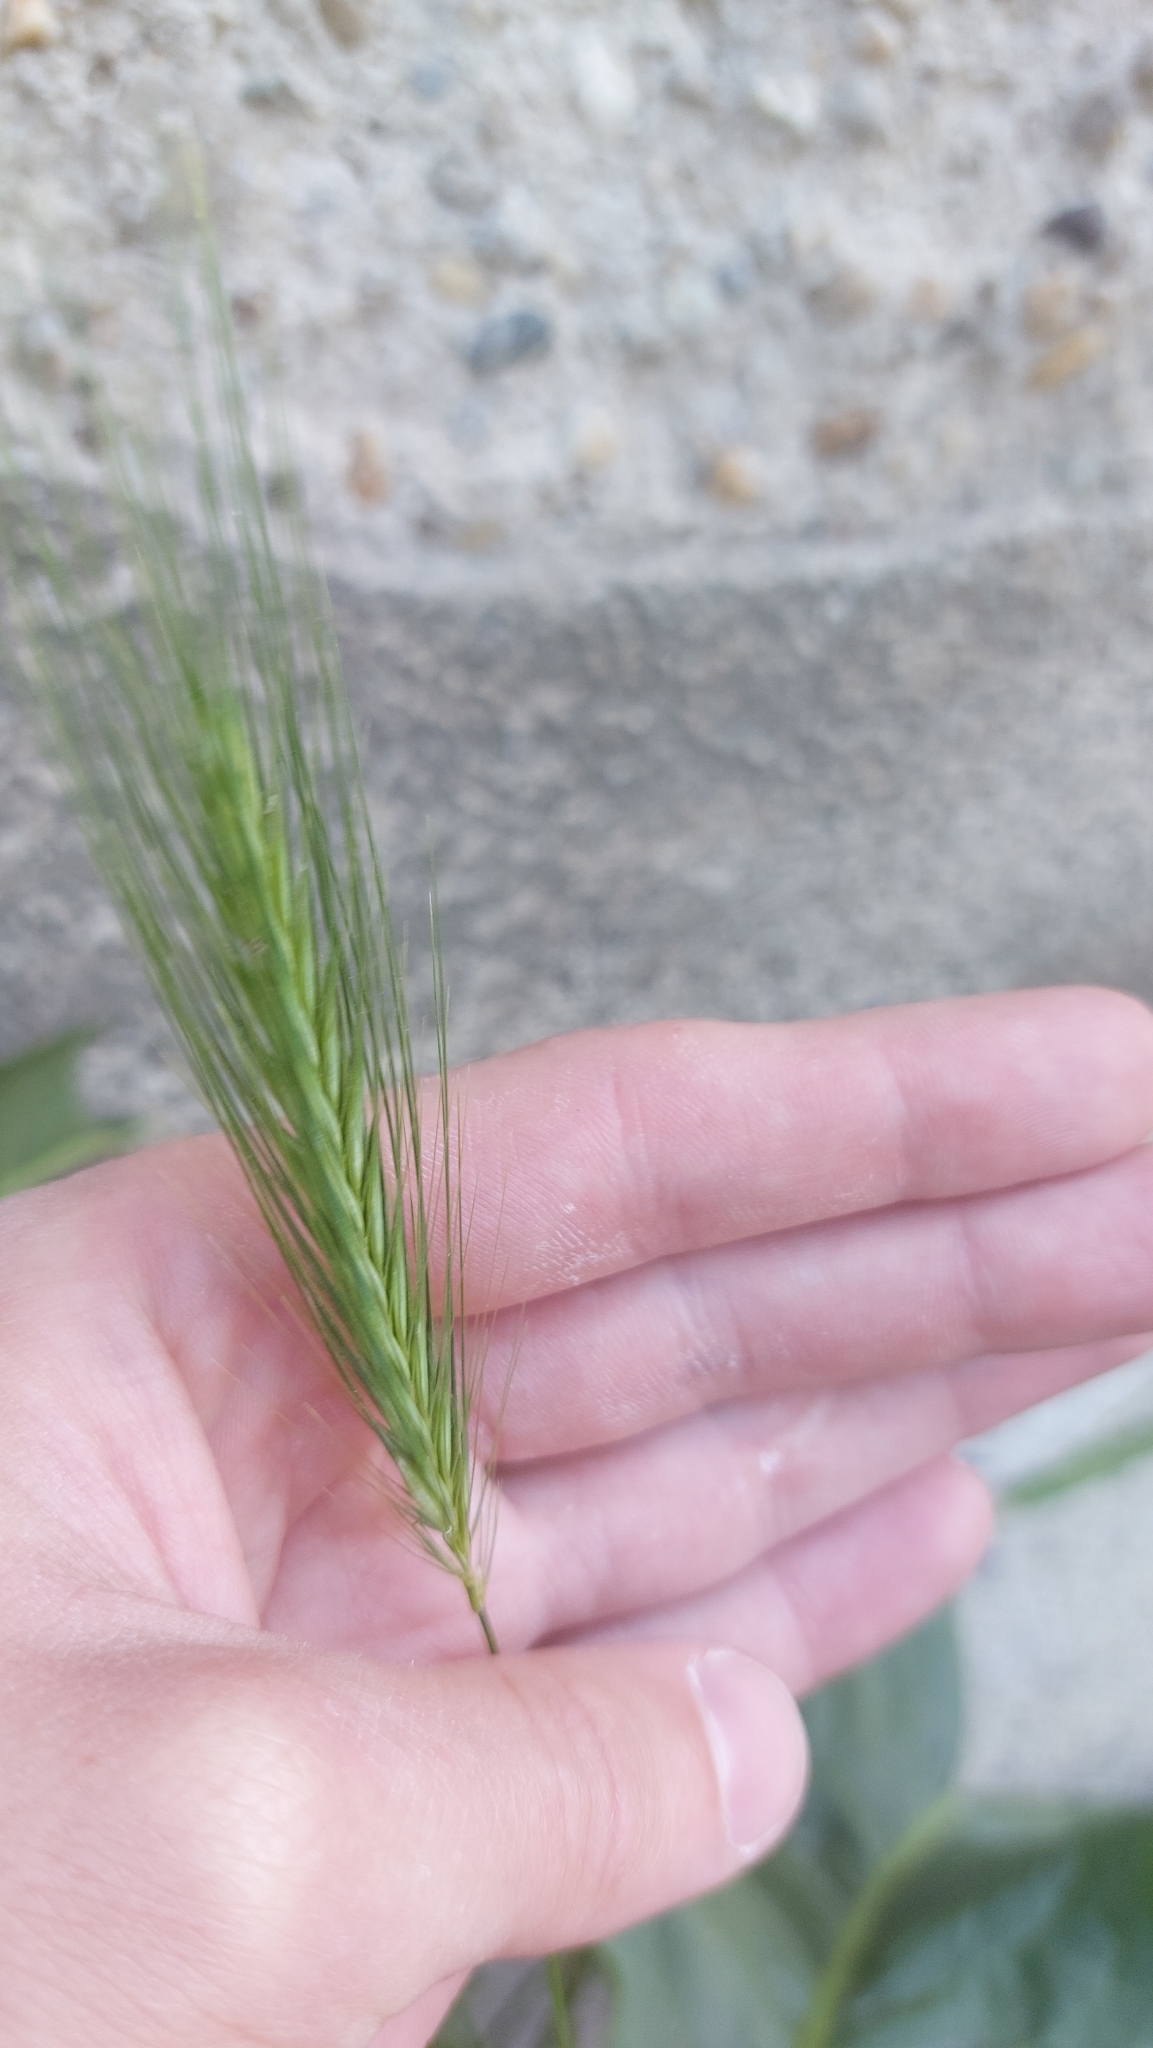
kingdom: Plantae
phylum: Tracheophyta
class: Liliopsida
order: Poales
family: Poaceae
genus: Hordeum
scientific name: Hordeum murinum
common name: Wall barley
